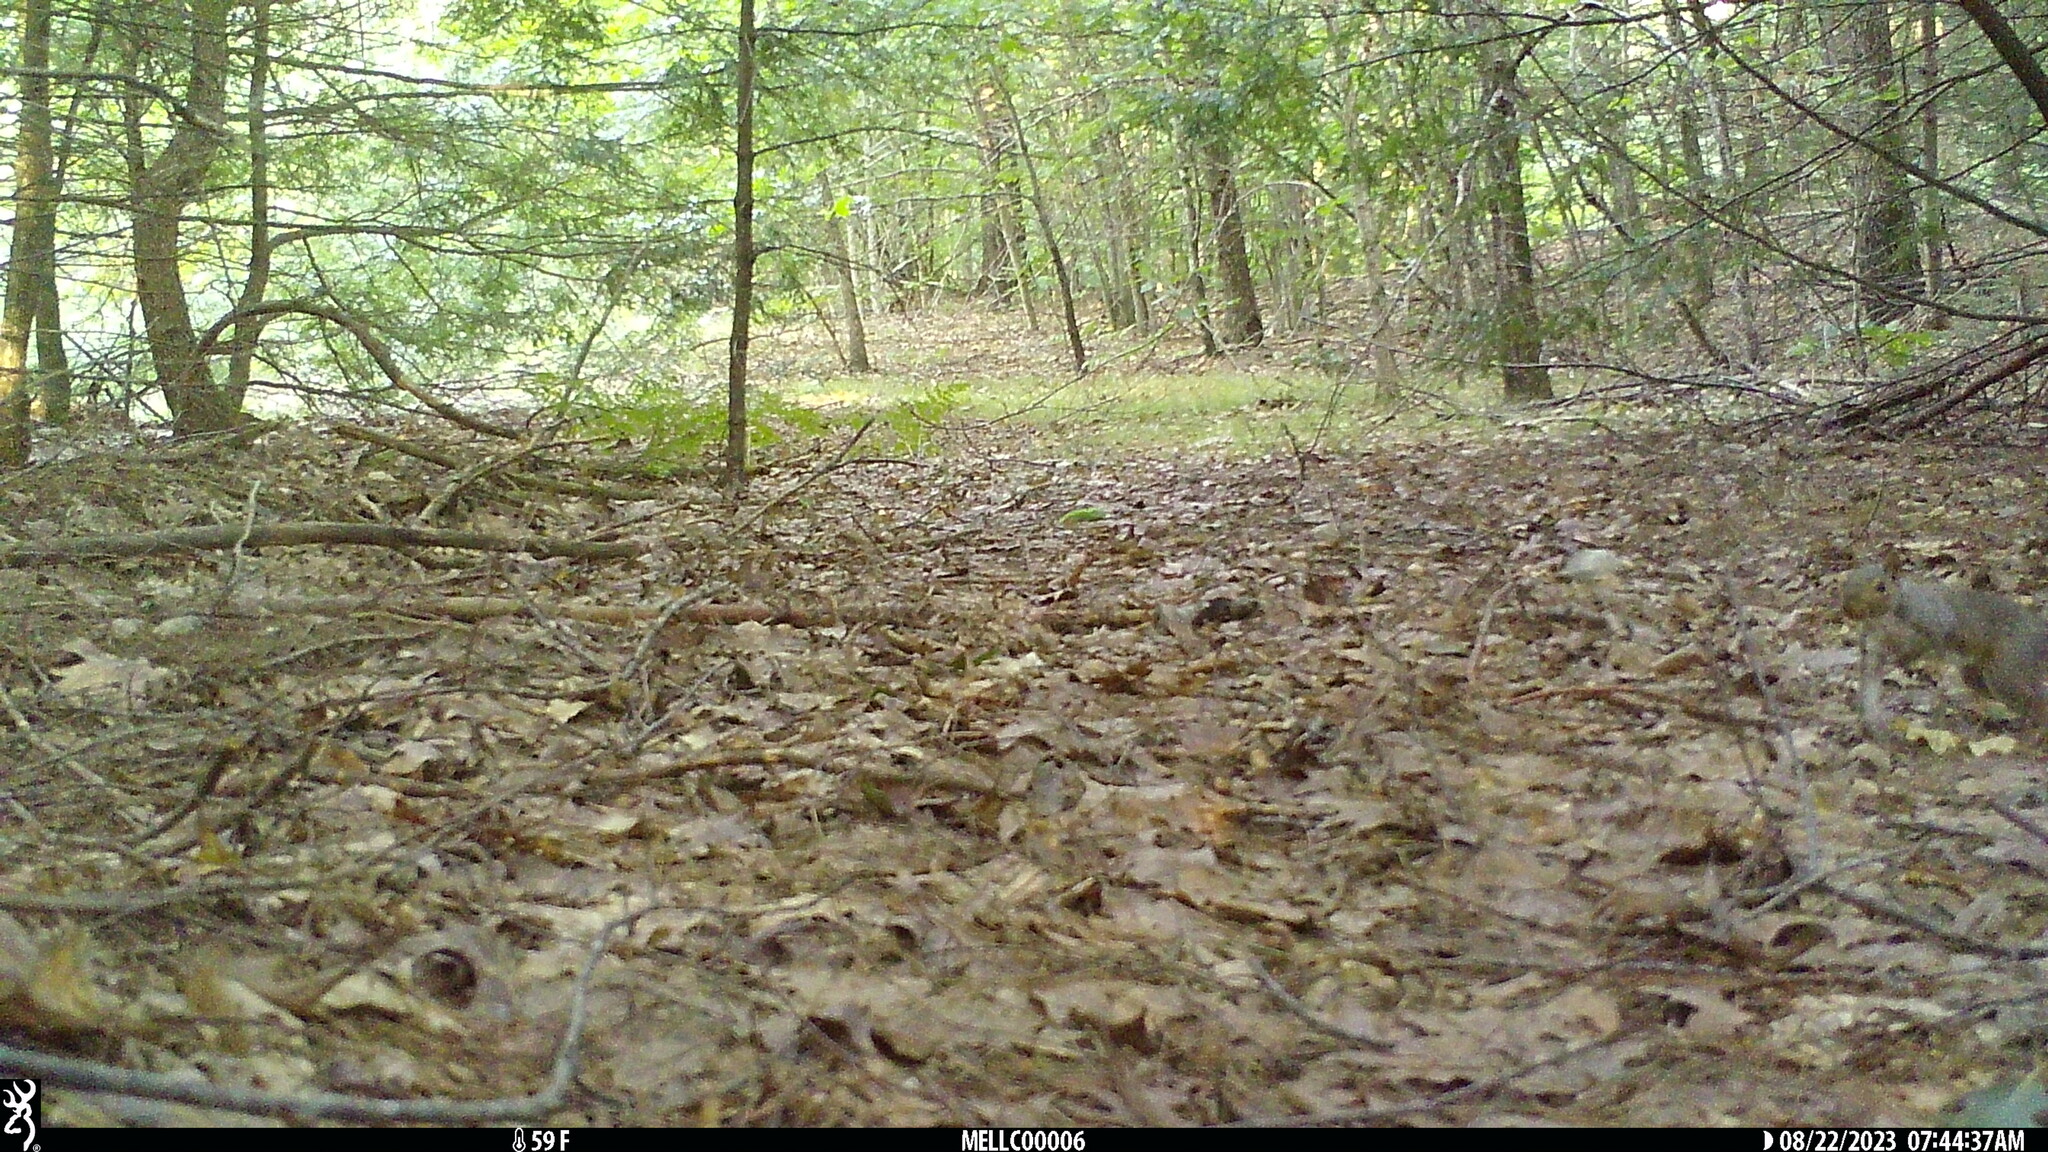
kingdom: Animalia
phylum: Chordata
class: Mammalia
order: Rodentia
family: Sciuridae
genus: Sciurus
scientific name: Sciurus carolinensis
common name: Eastern gray squirrel
